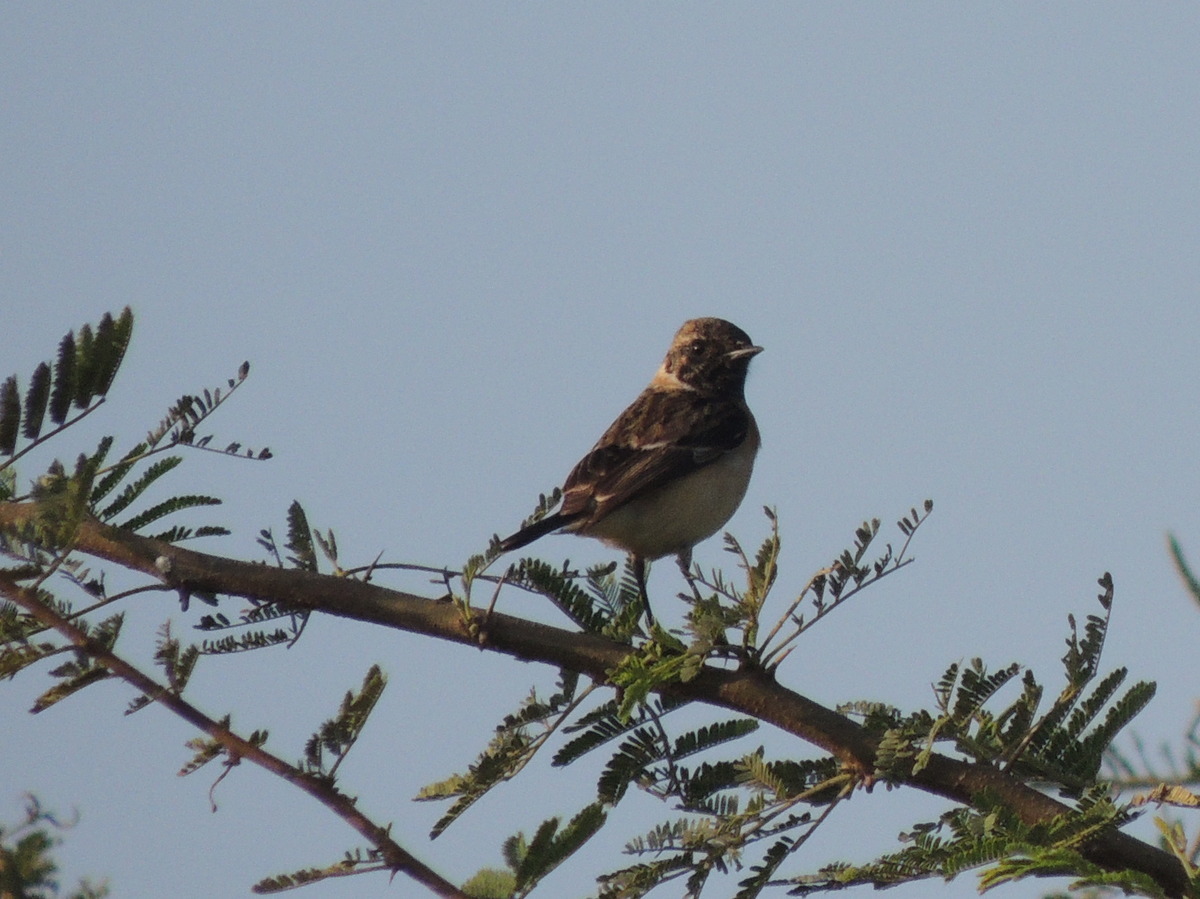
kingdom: Animalia
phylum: Chordata
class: Aves
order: Passeriformes
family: Muscicapidae
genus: Saxicola
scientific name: Saxicola maurus
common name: Siberian stonechat
